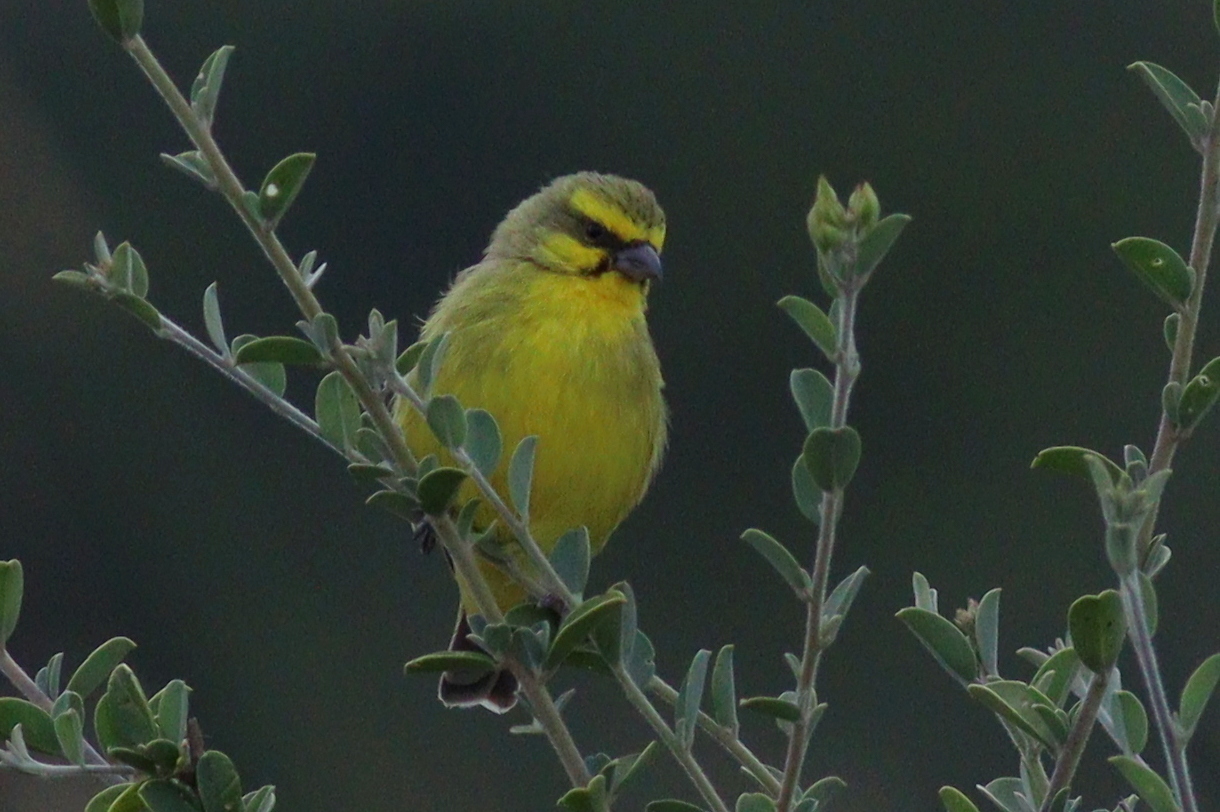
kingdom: Animalia
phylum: Chordata
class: Aves
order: Passeriformes
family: Fringillidae
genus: Crithagra
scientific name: Crithagra mozambica
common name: Yellow-fronted canary
